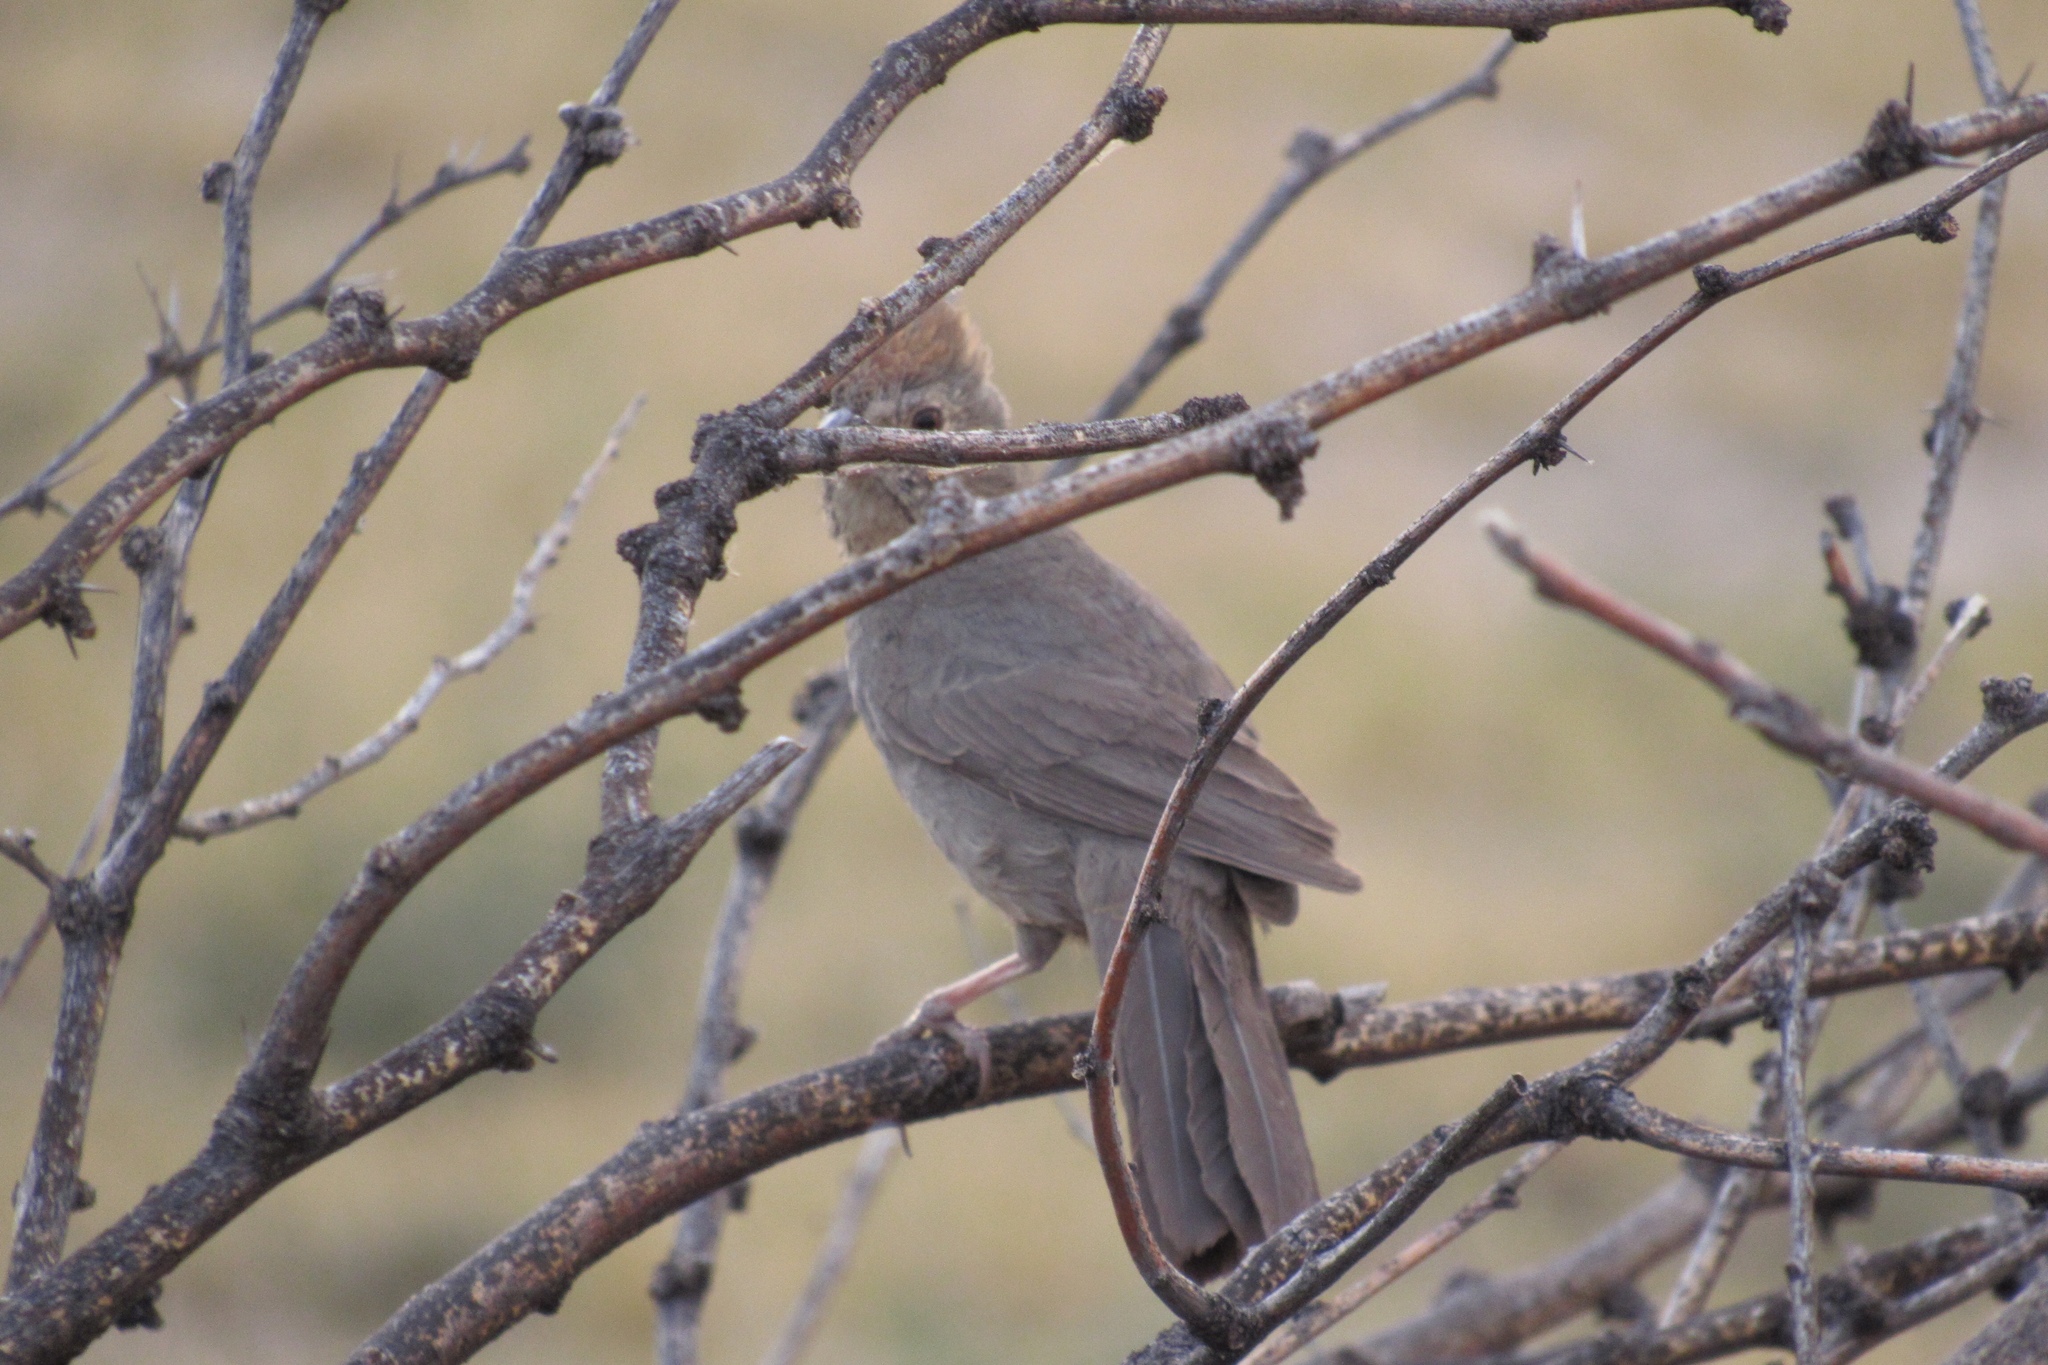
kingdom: Animalia
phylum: Chordata
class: Aves
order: Passeriformes
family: Passerellidae
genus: Melozone
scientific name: Melozone fusca
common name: Canyon towhee
